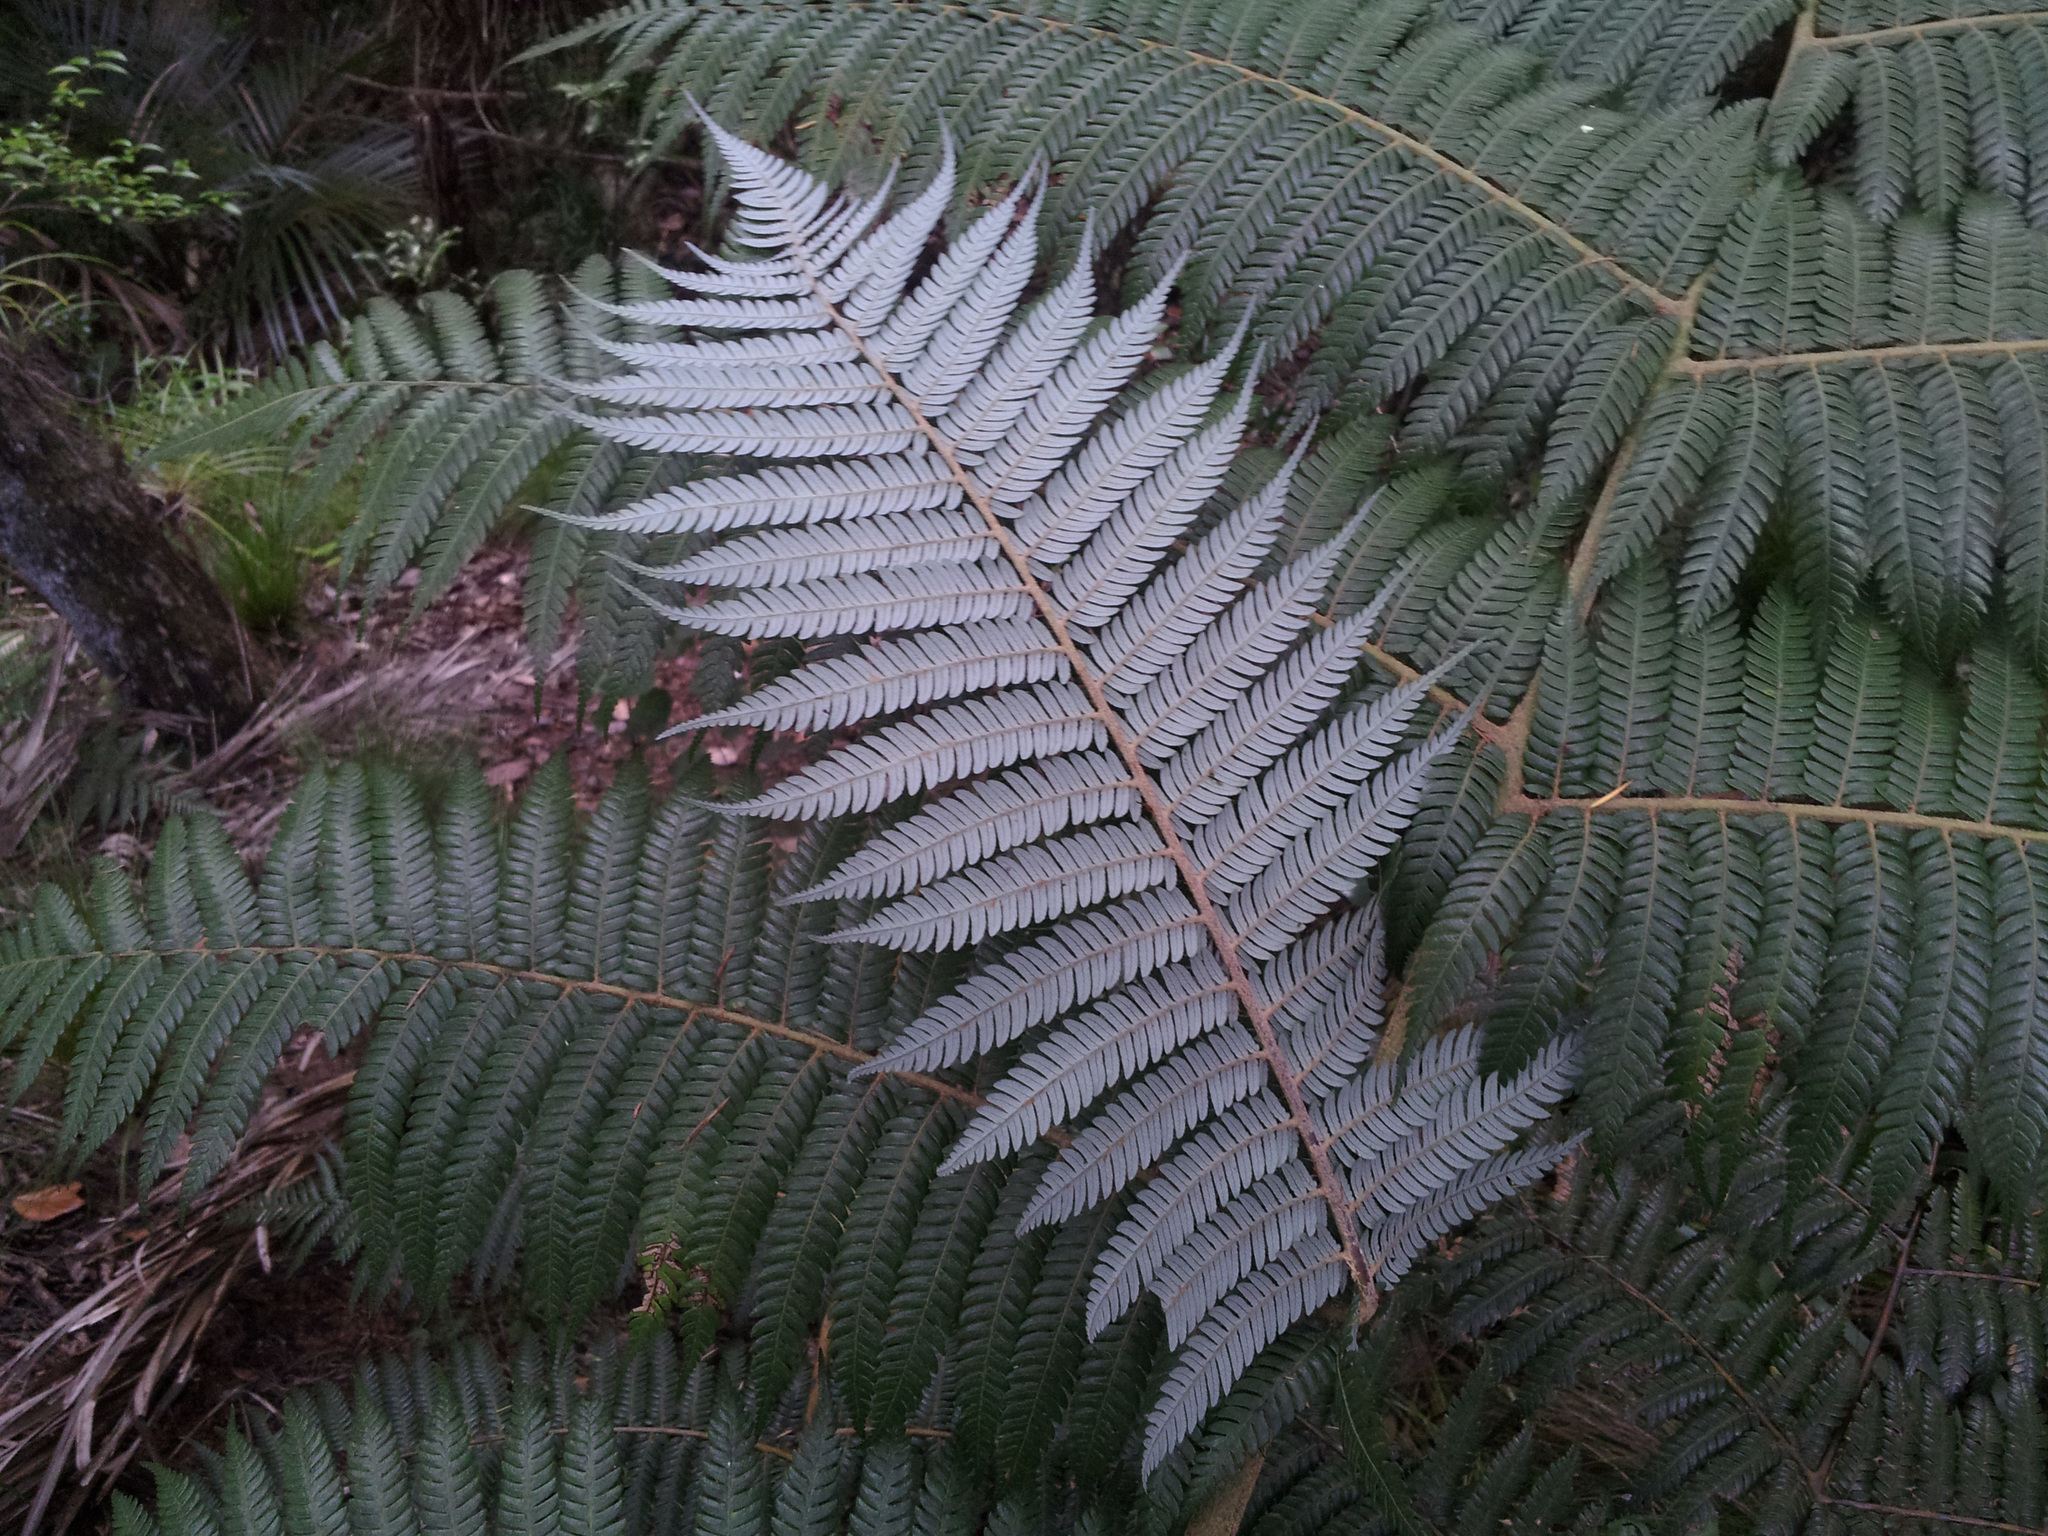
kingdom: Plantae
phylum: Tracheophyta
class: Polypodiopsida
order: Cyatheales
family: Cyatheaceae
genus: Alsophila
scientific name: Alsophila dealbata
